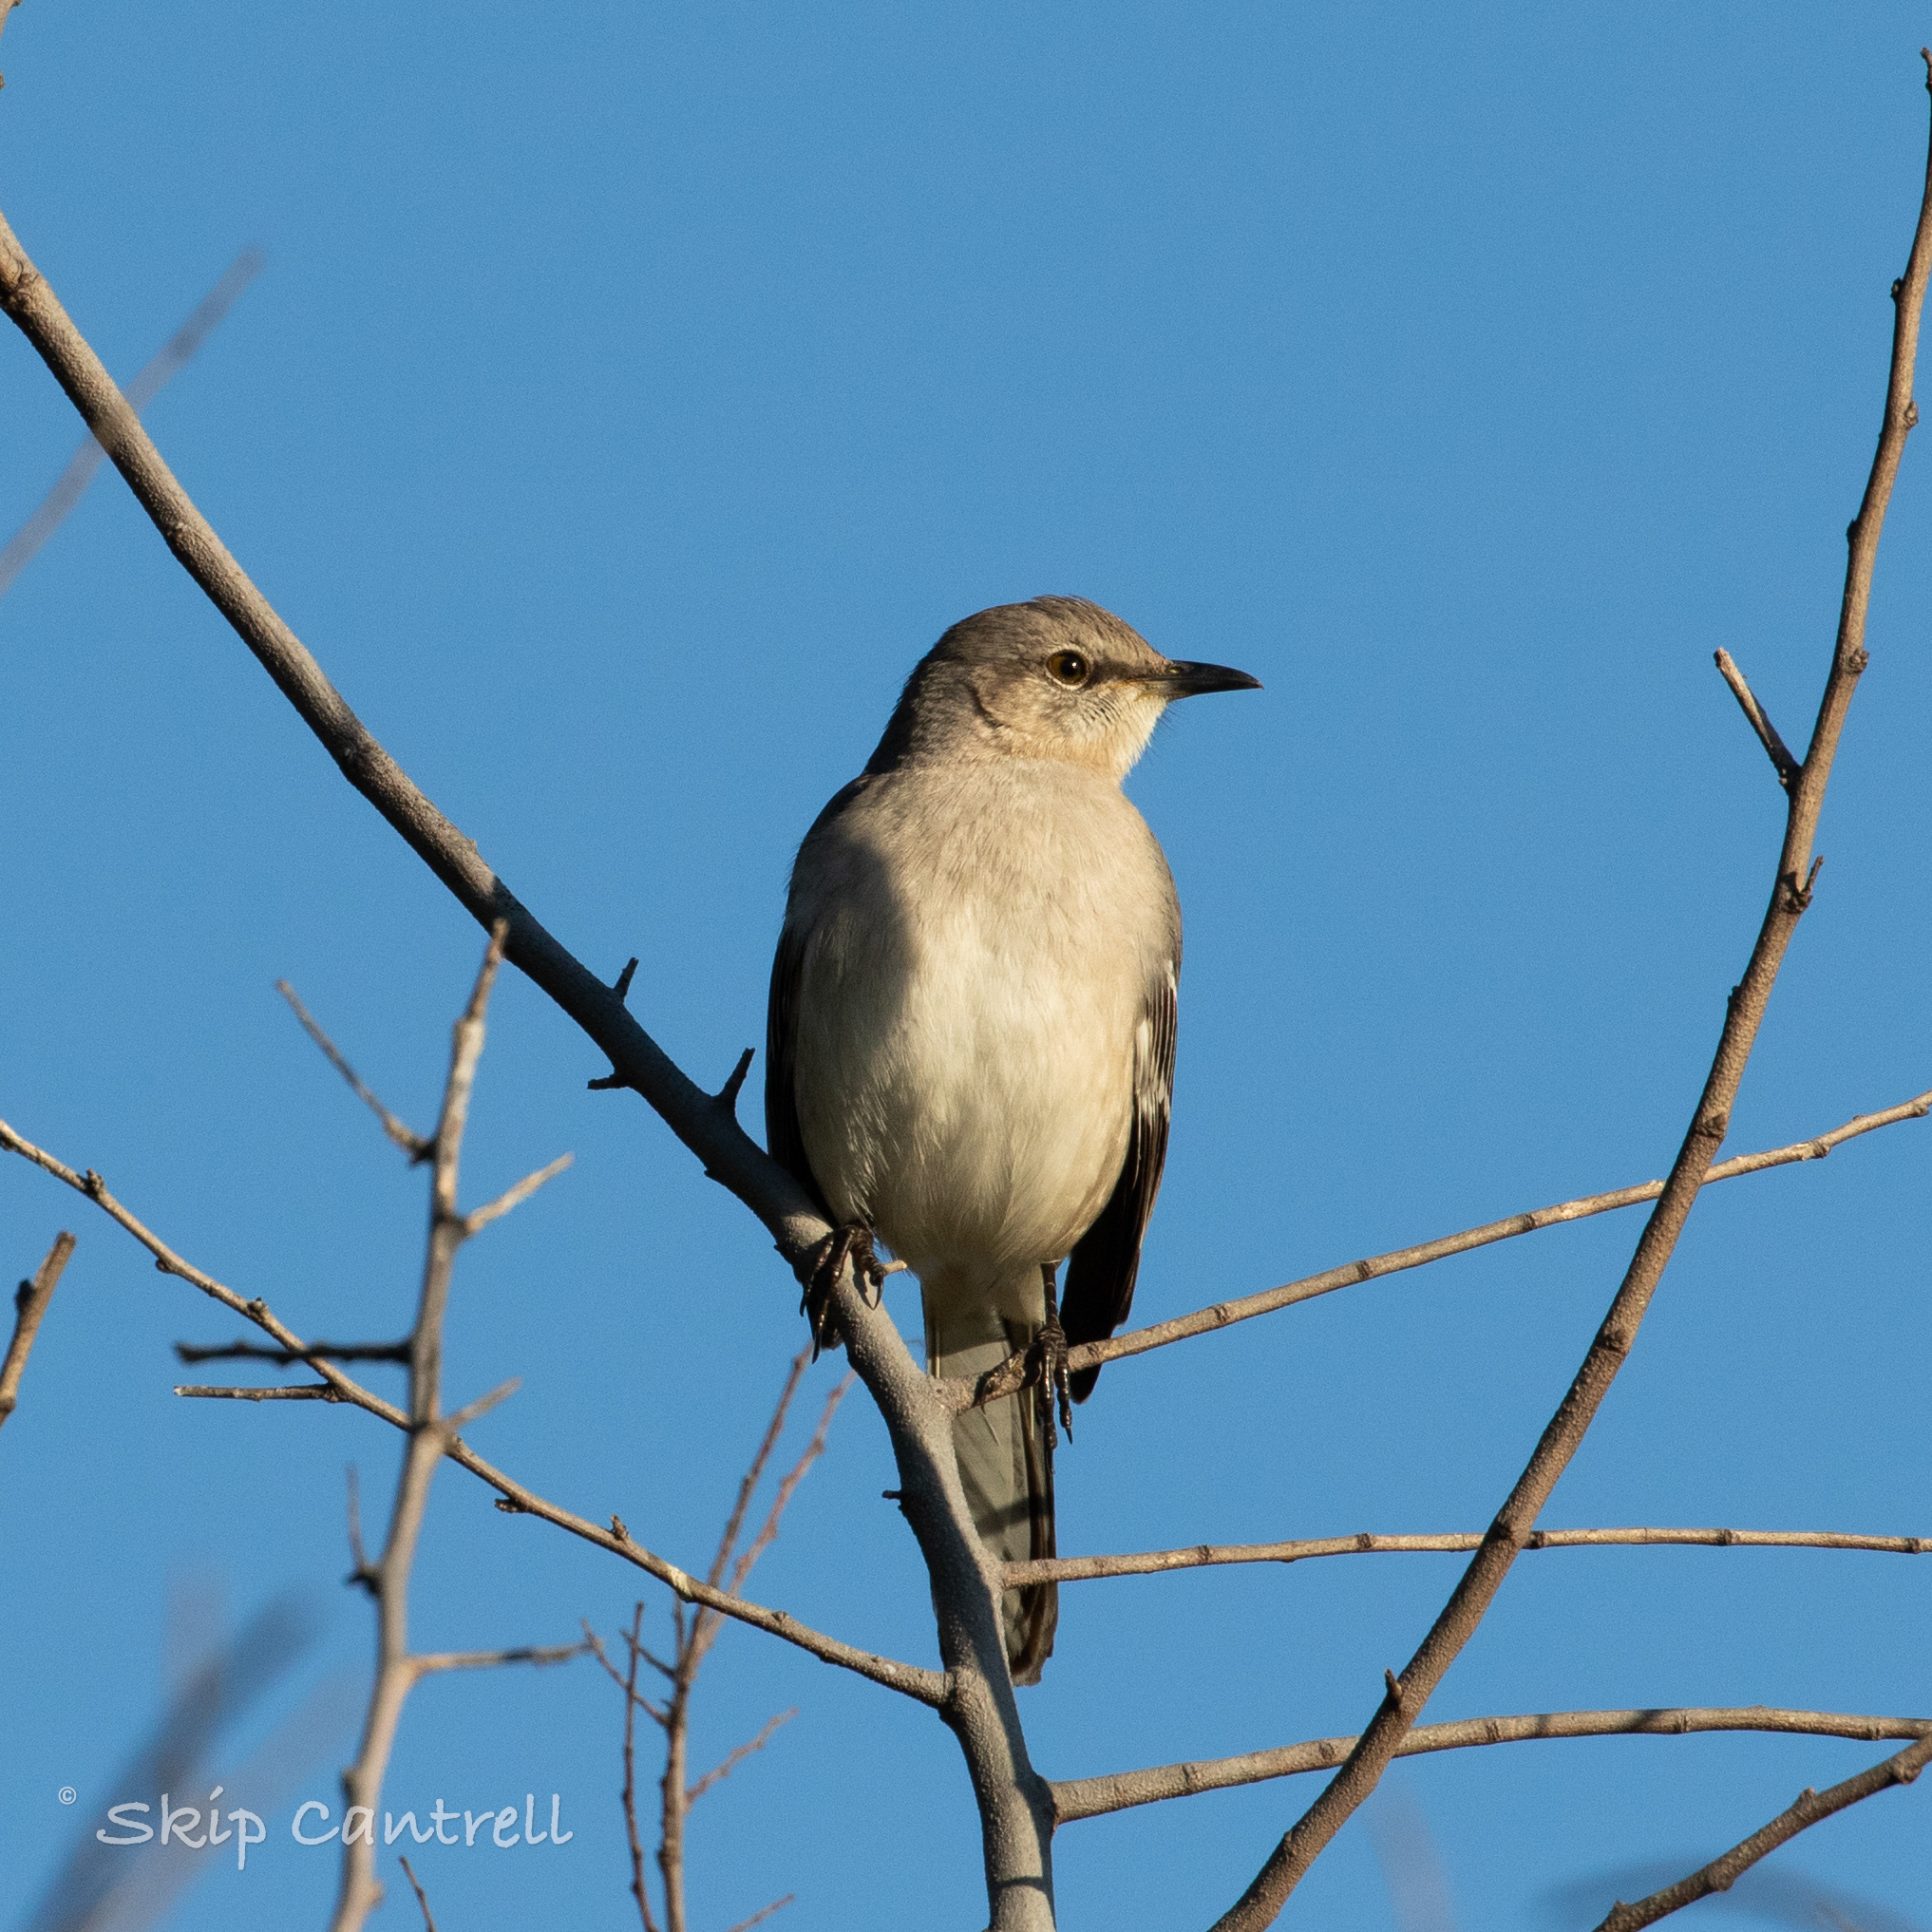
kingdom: Animalia
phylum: Chordata
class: Aves
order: Passeriformes
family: Mimidae
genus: Mimus
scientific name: Mimus polyglottos
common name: Northern mockingbird
